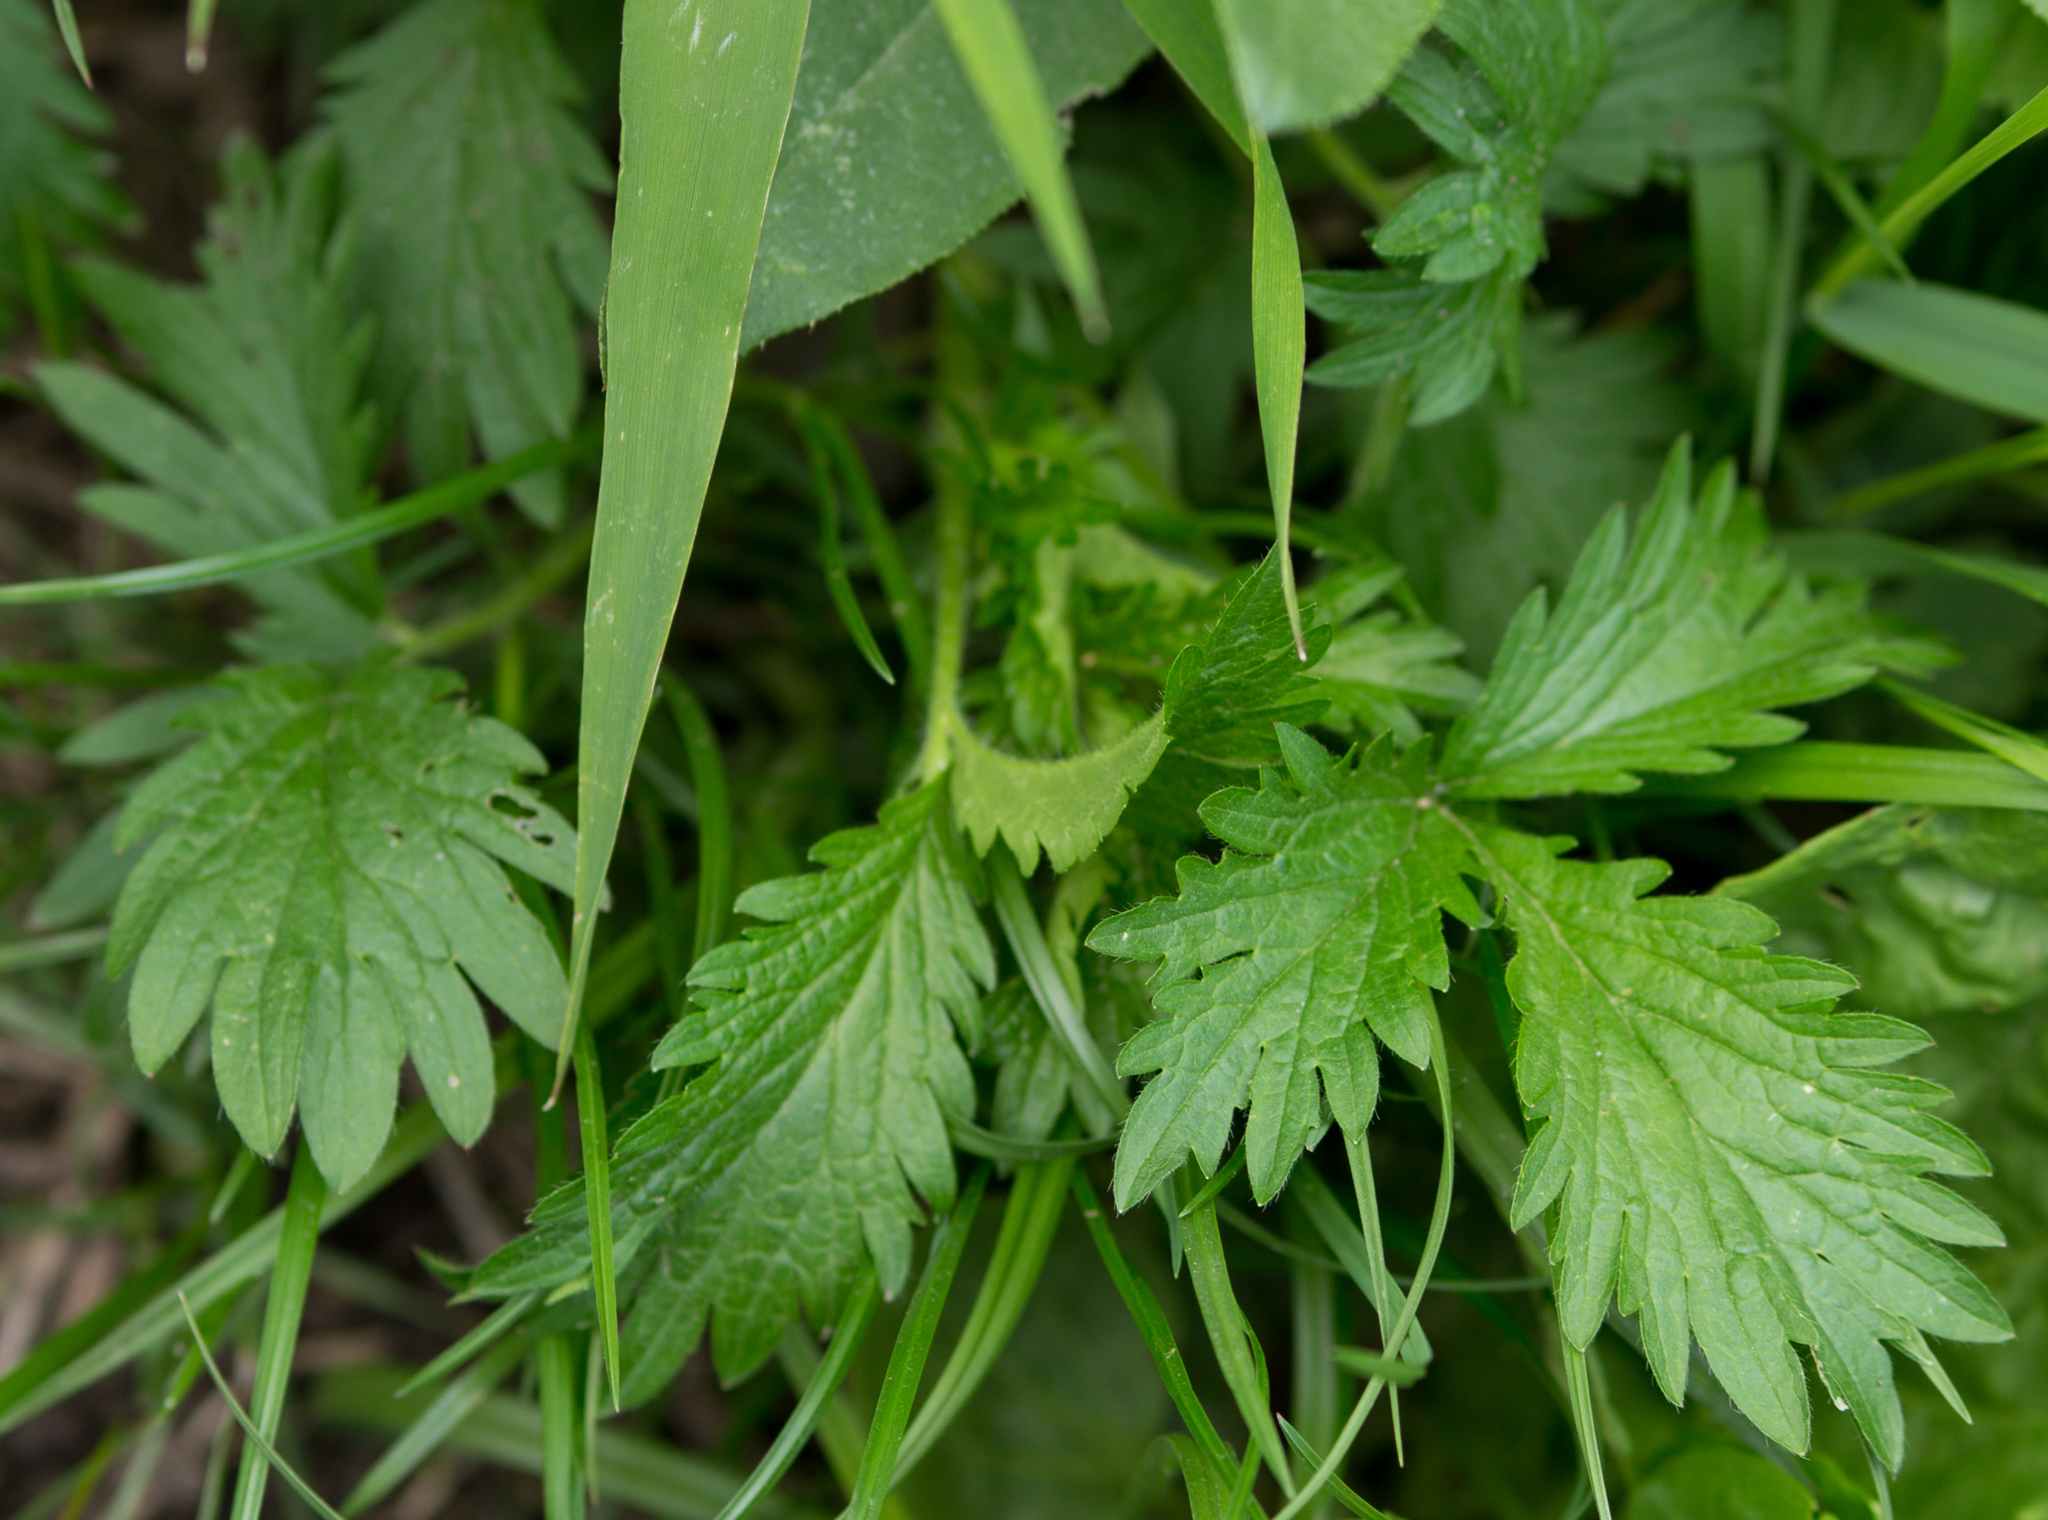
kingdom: Plantae
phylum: Tracheophyta
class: Magnoliopsida
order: Rosales
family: Rosaceae
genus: Potentilla
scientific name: Potentilla norvegica
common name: Ternate-leaved cinquefoil
